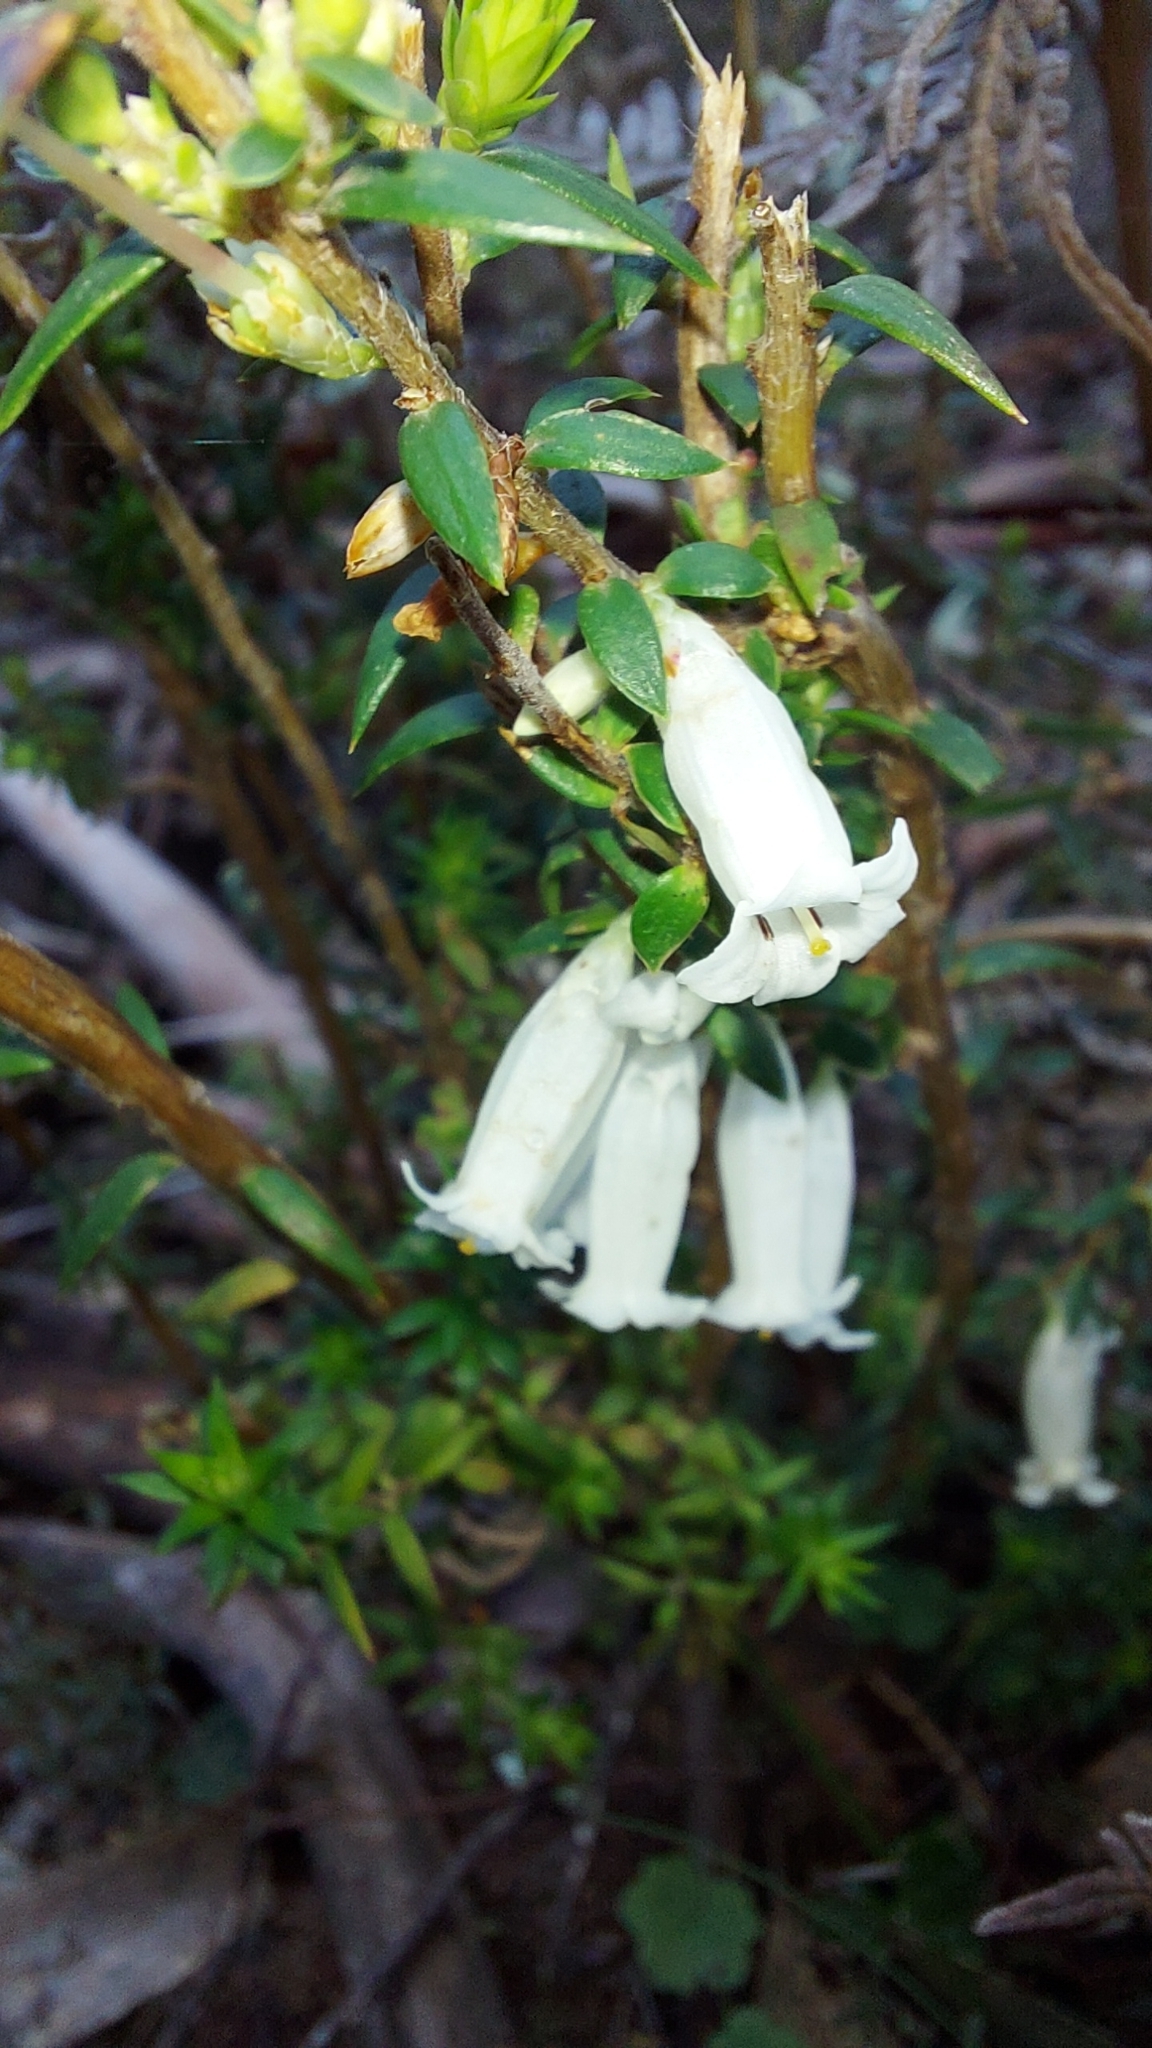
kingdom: Plantae
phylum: Tracheophyta
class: Magnoliopsida
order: Ericales
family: Ericaceae
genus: Epacris
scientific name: Epacris impressa
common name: Common-heath
